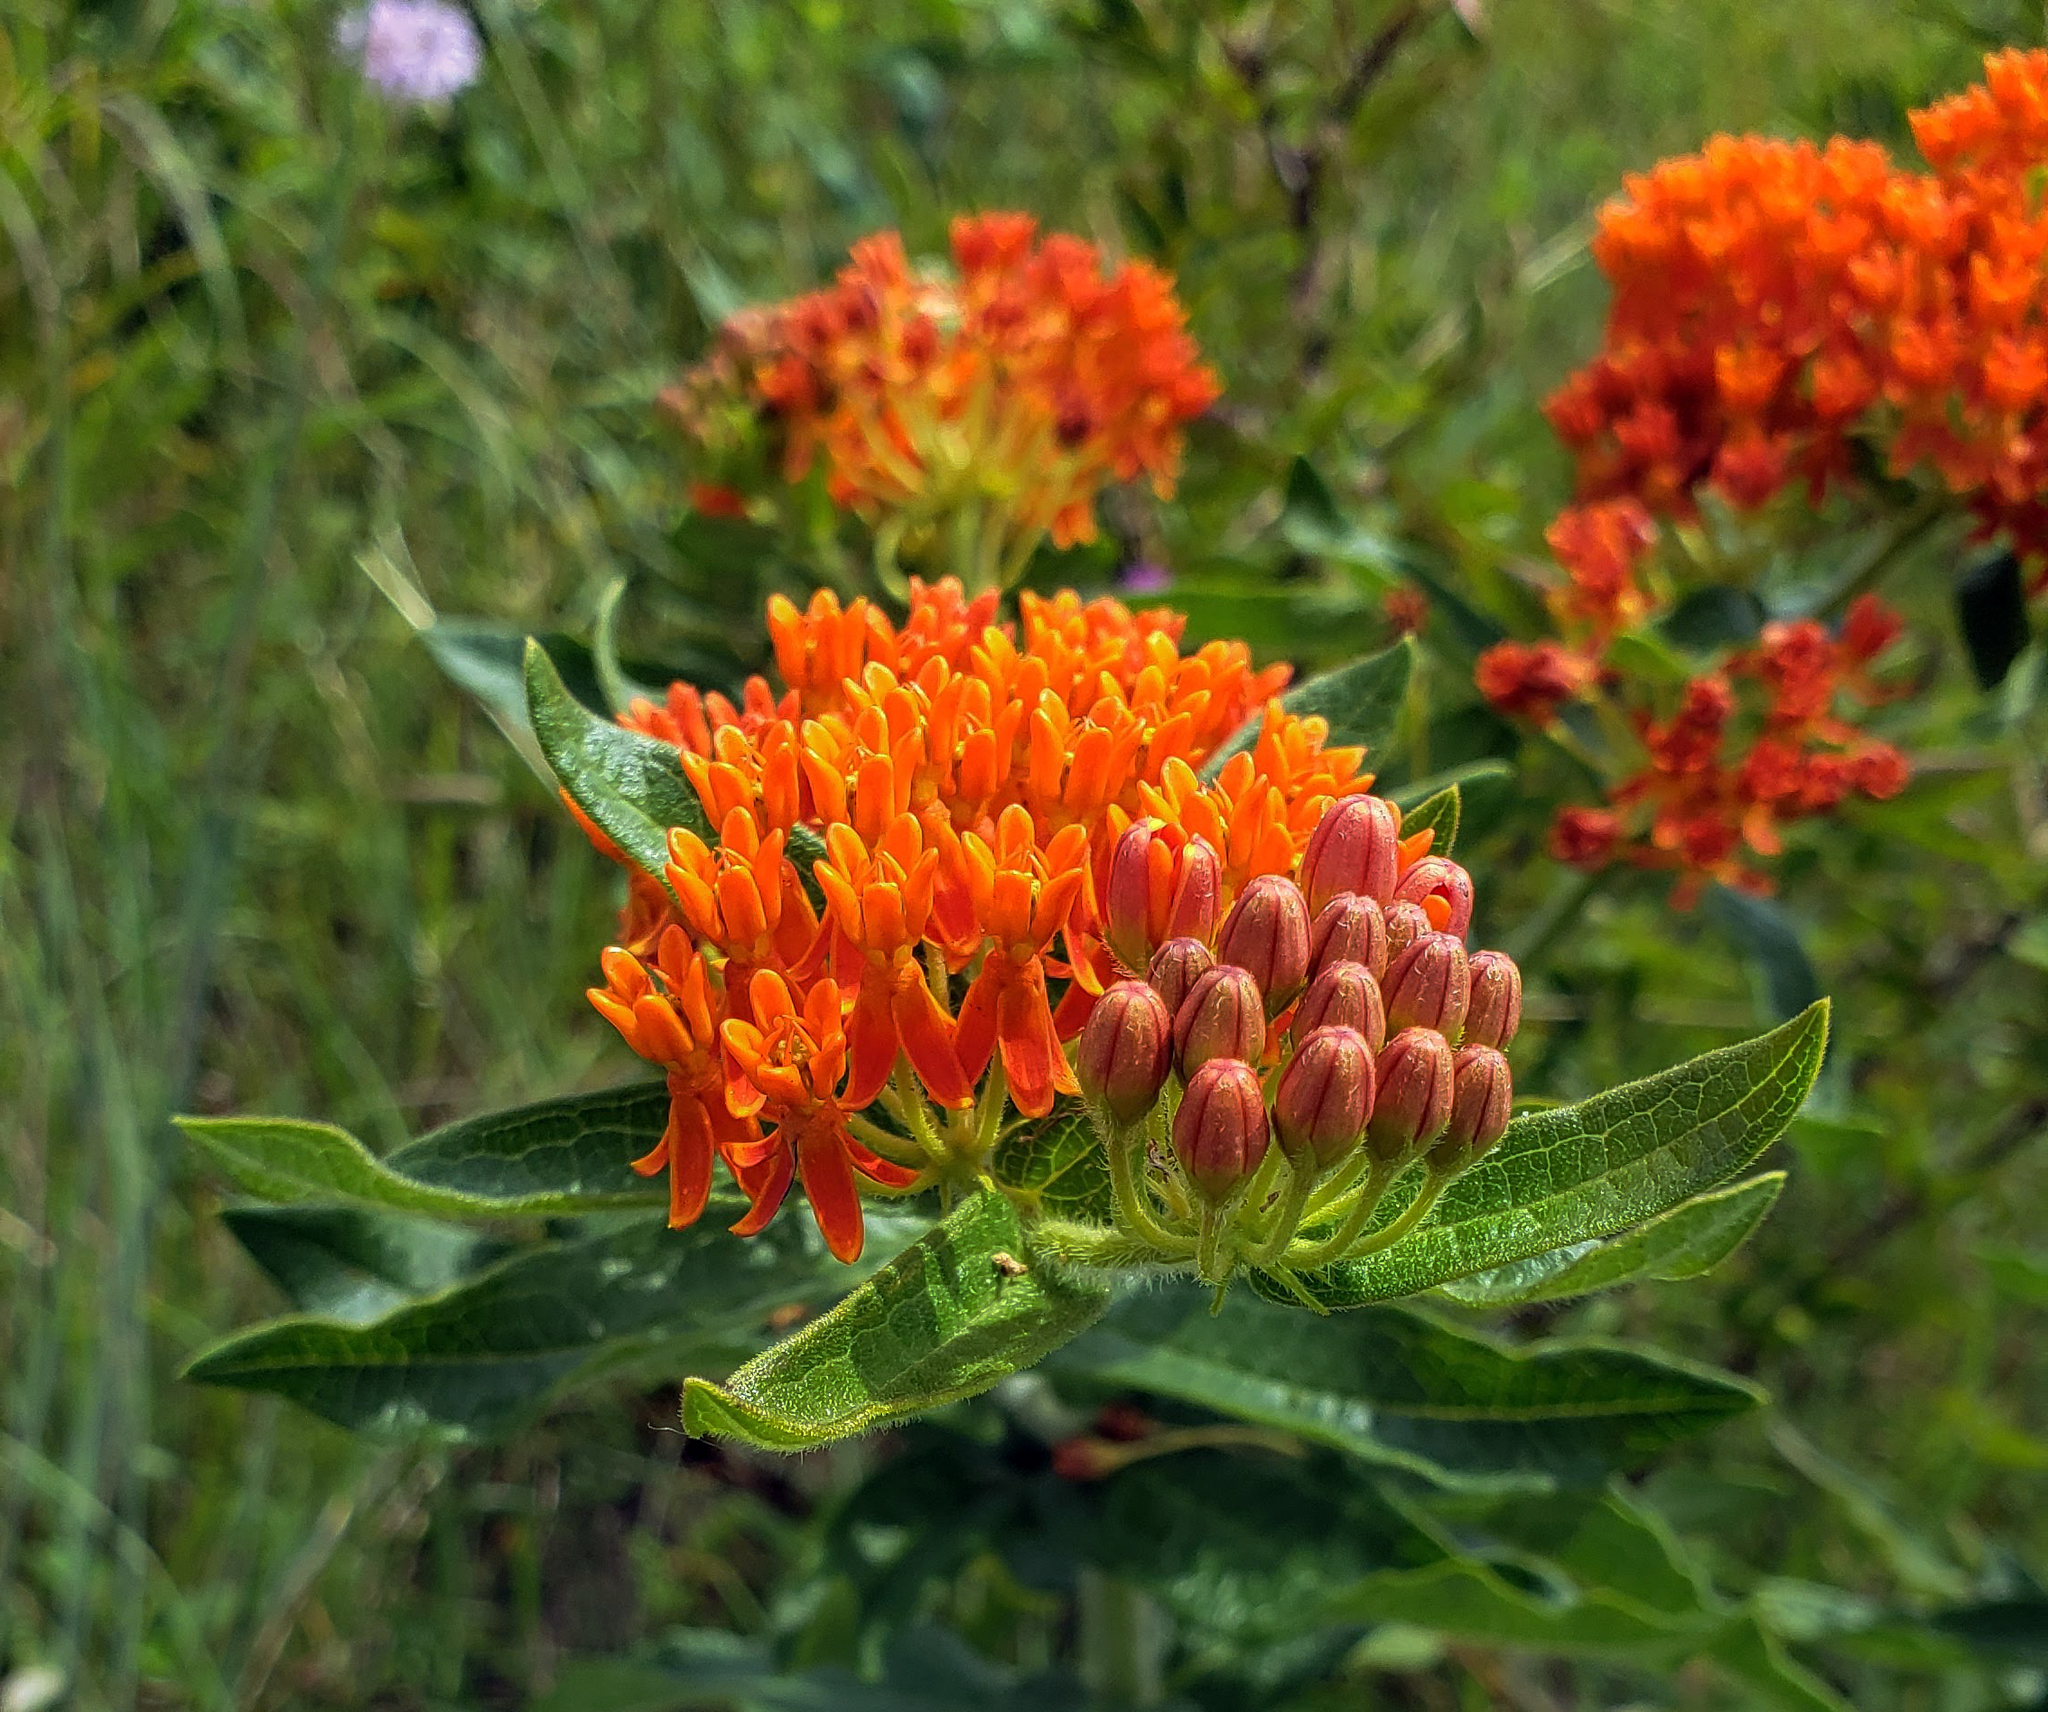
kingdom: Plantae
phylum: Tracheophyta
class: Magnoliopsida
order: Gentianales
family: Apocynaceae
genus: Asclepias
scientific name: Asclepias tuberosa
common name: Butterfly milkweed
